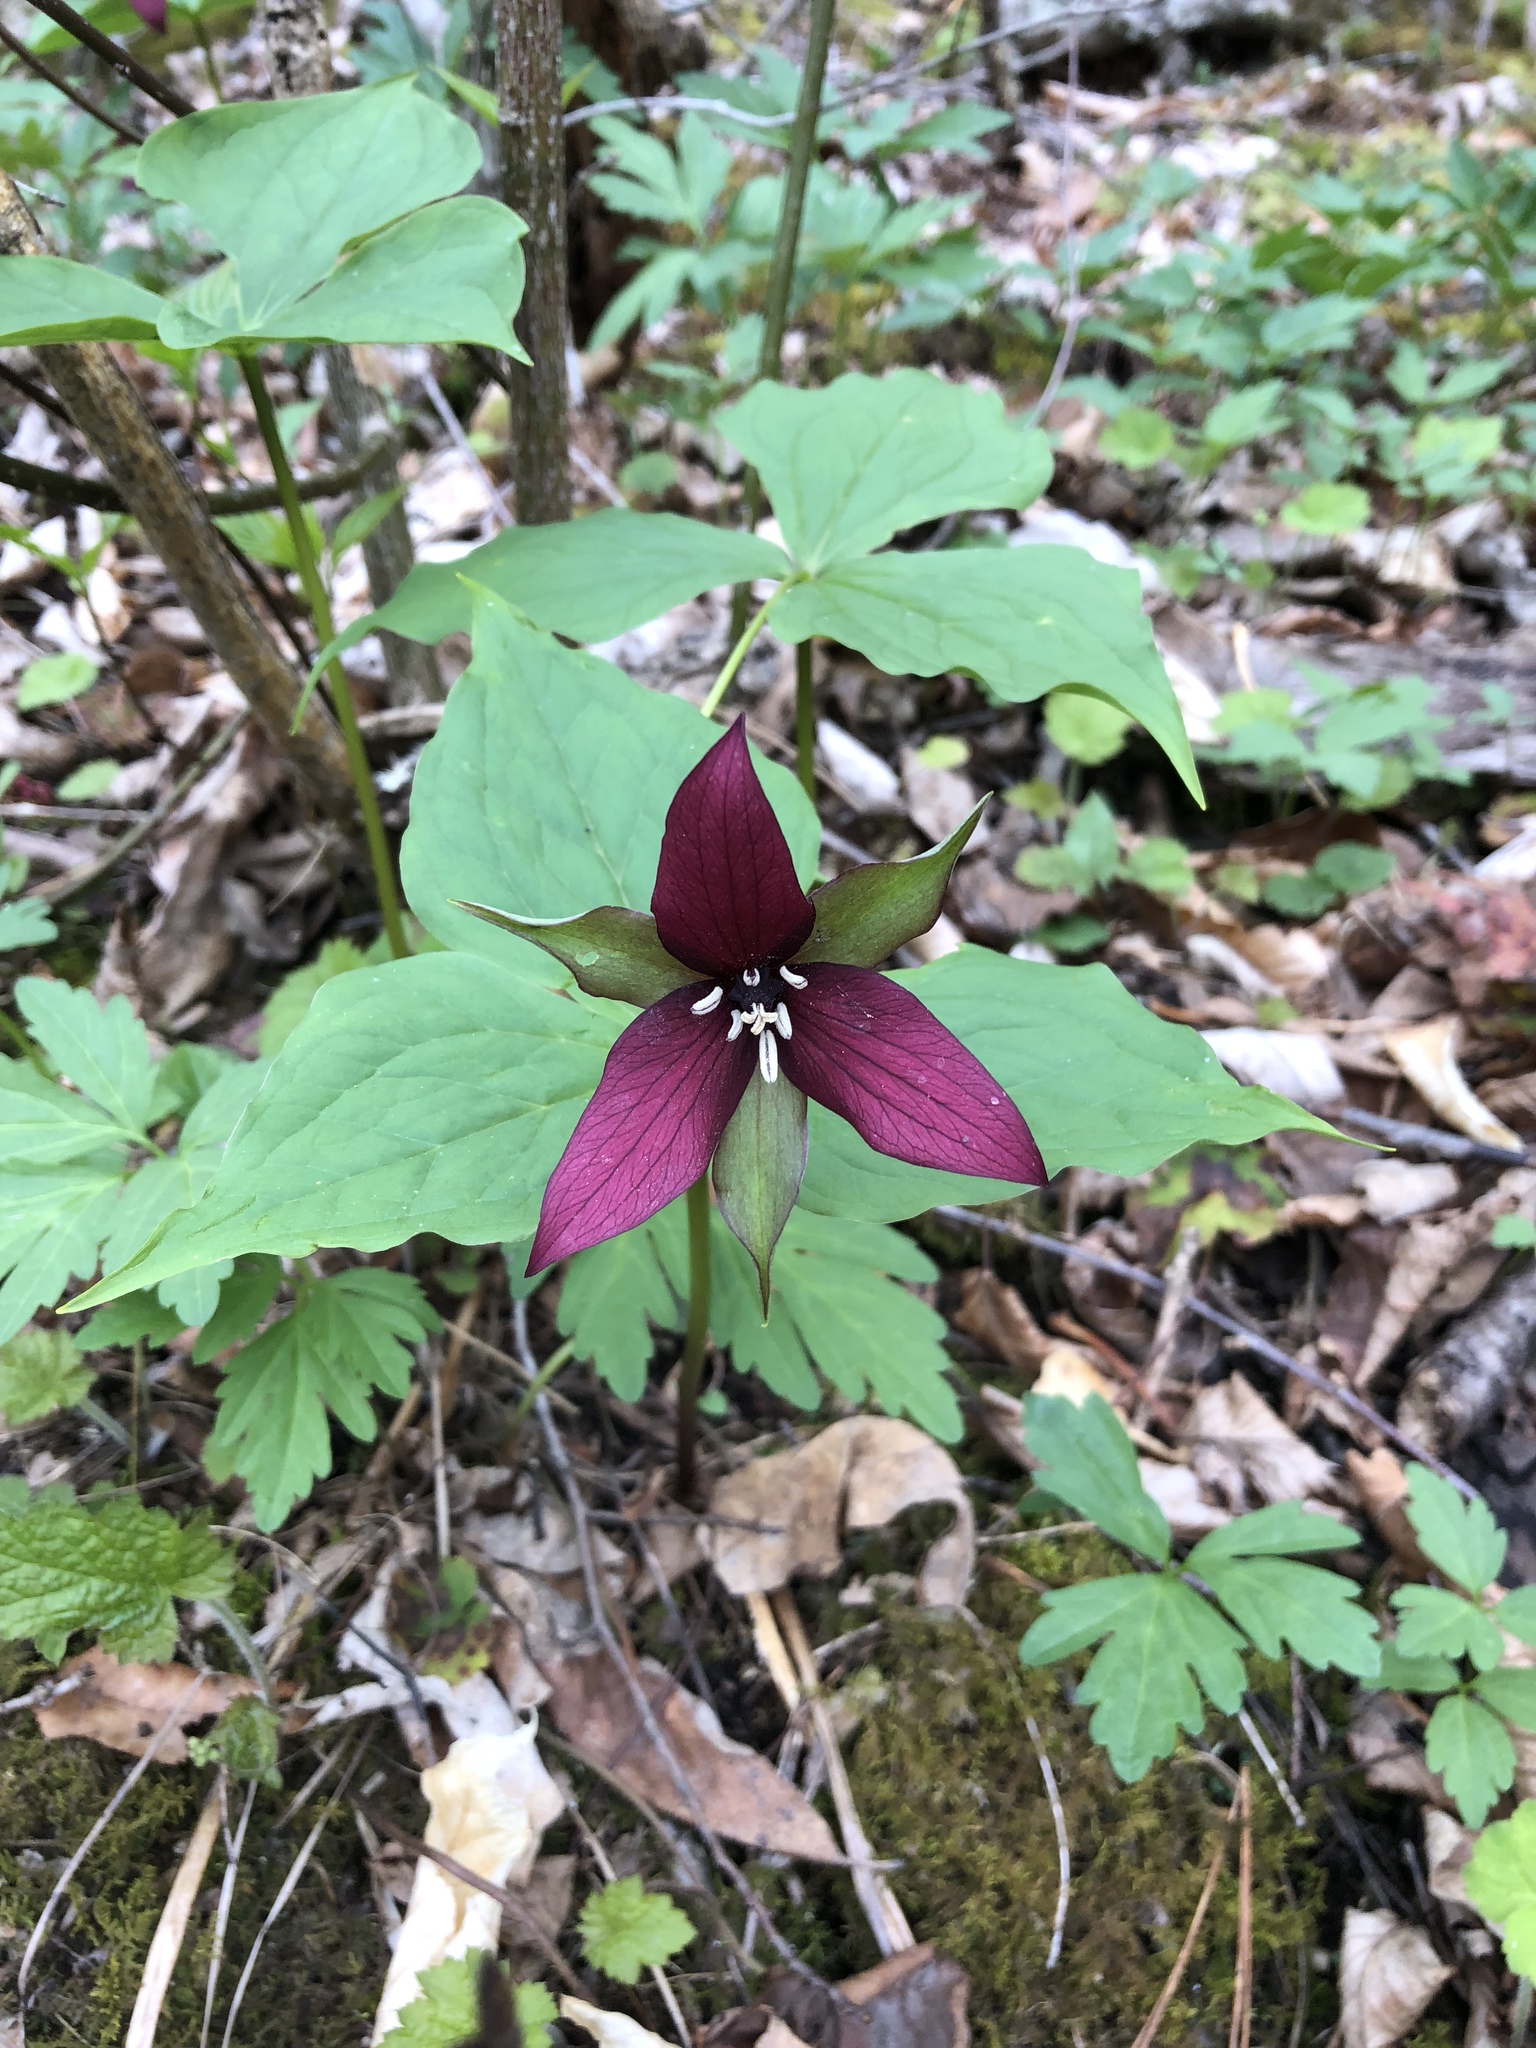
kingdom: Plantae
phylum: Tracheophyta
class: Liliopsida
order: Liliales
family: Melanthiaceae
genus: Trillium
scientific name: Trillium erectum
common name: Purple trillium
